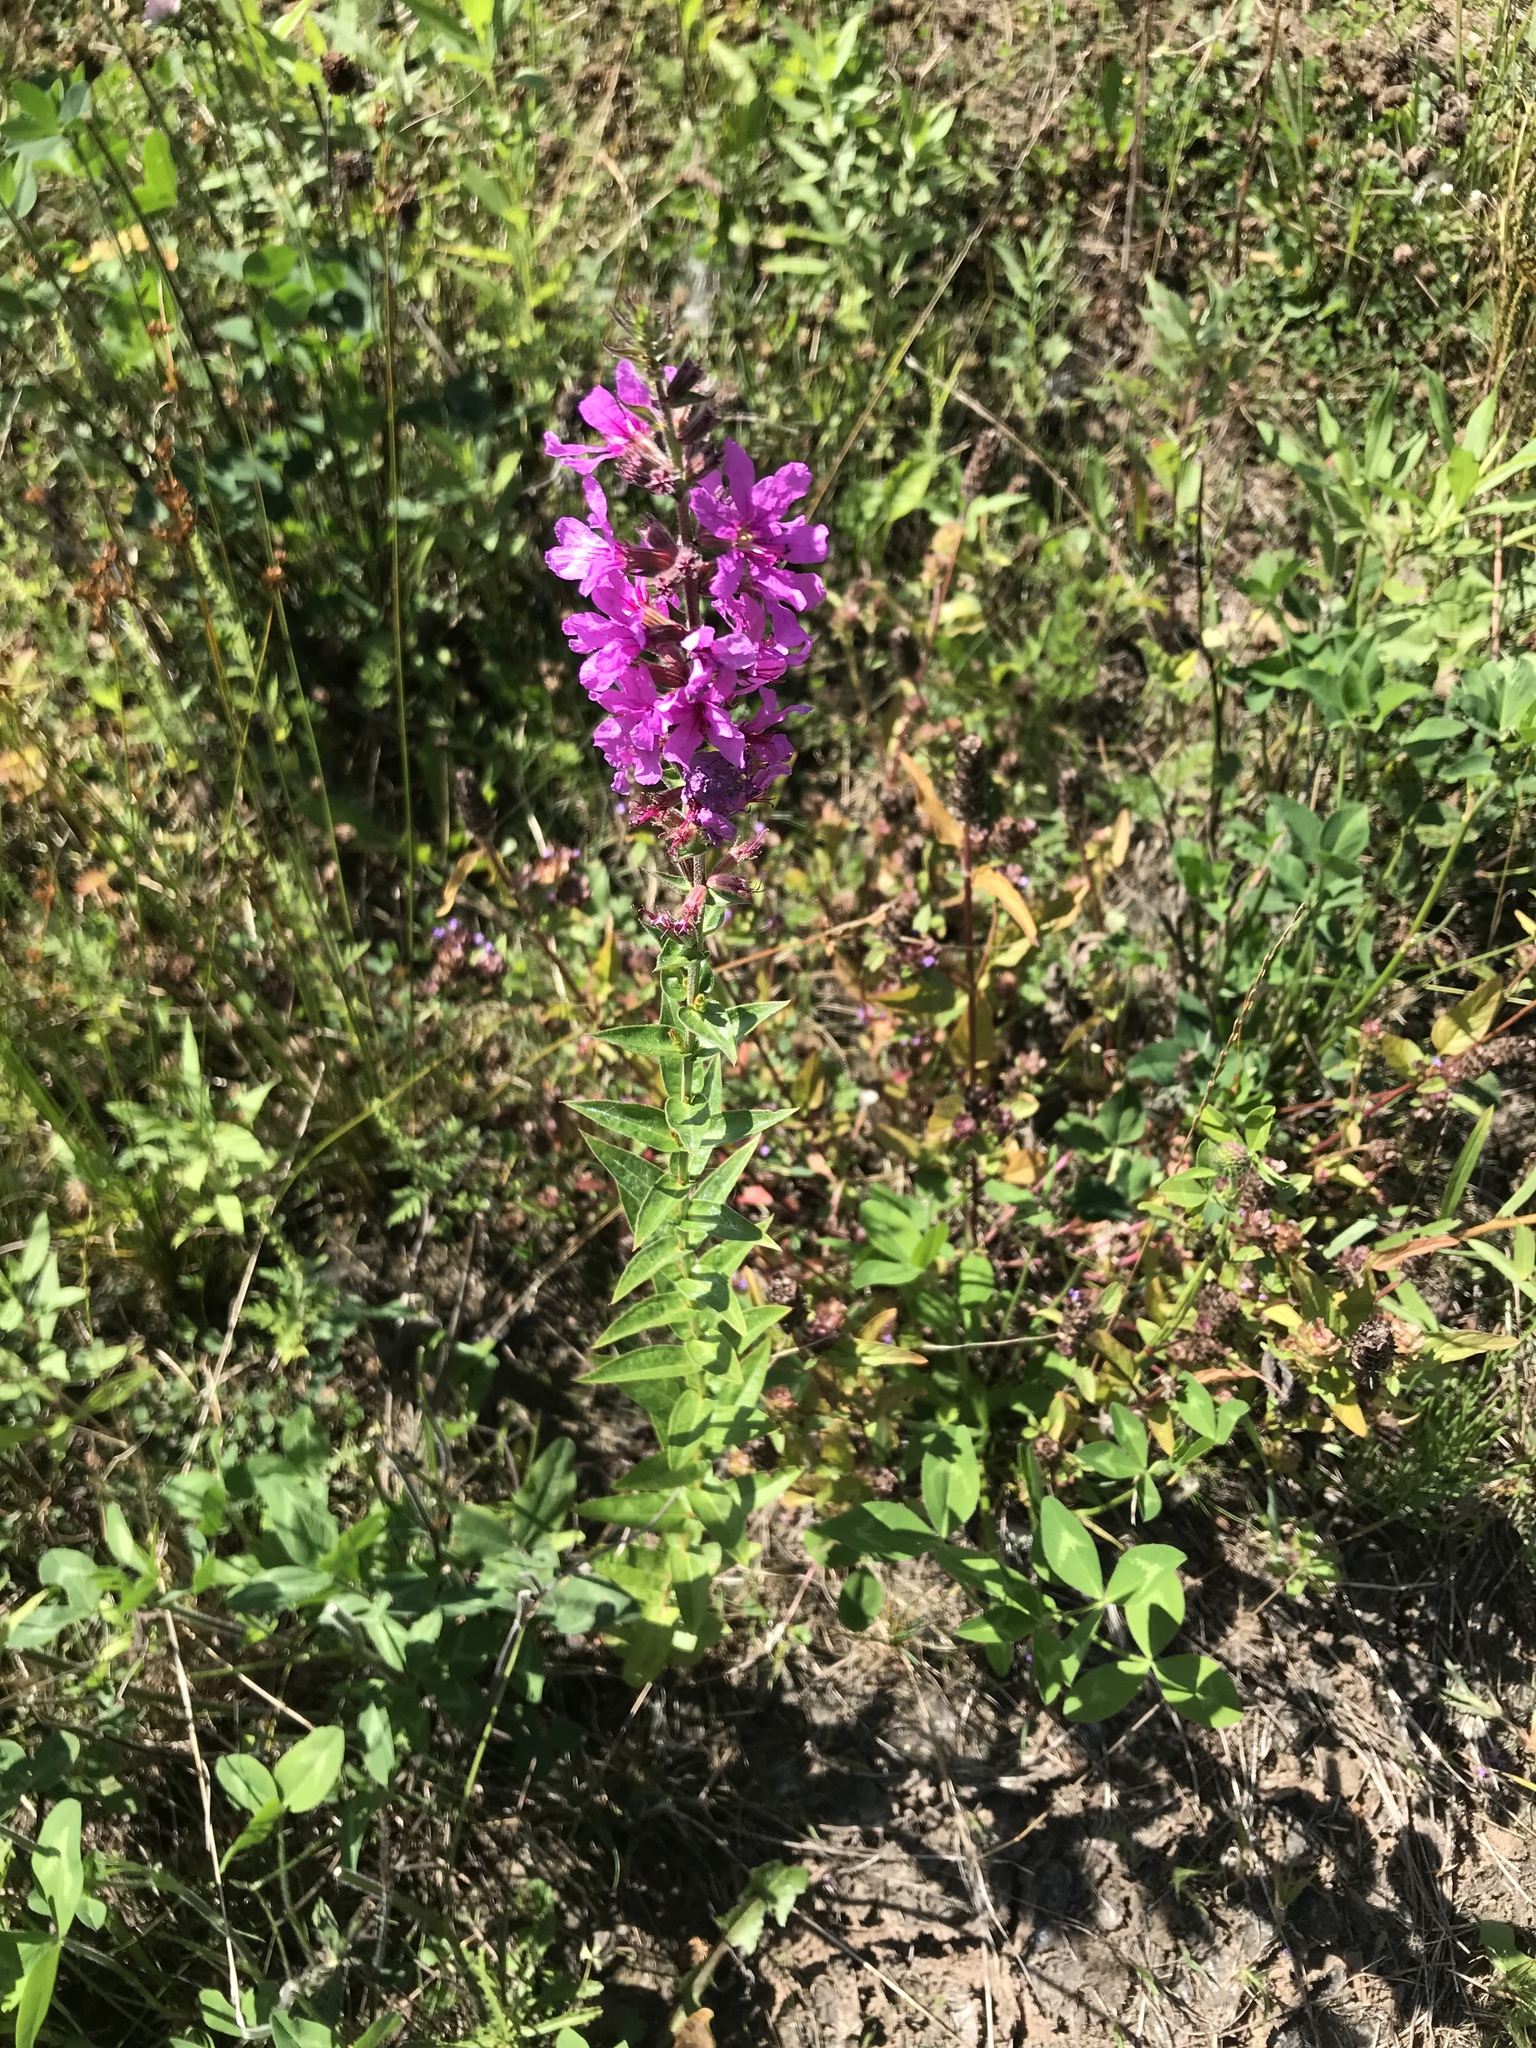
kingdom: Plantae
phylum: Tracheophyta
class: Magnoliopsida
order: Myrtales
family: Lythraceae
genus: Lythrum
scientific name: Lythrum salicaria
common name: Purple loosestrife
